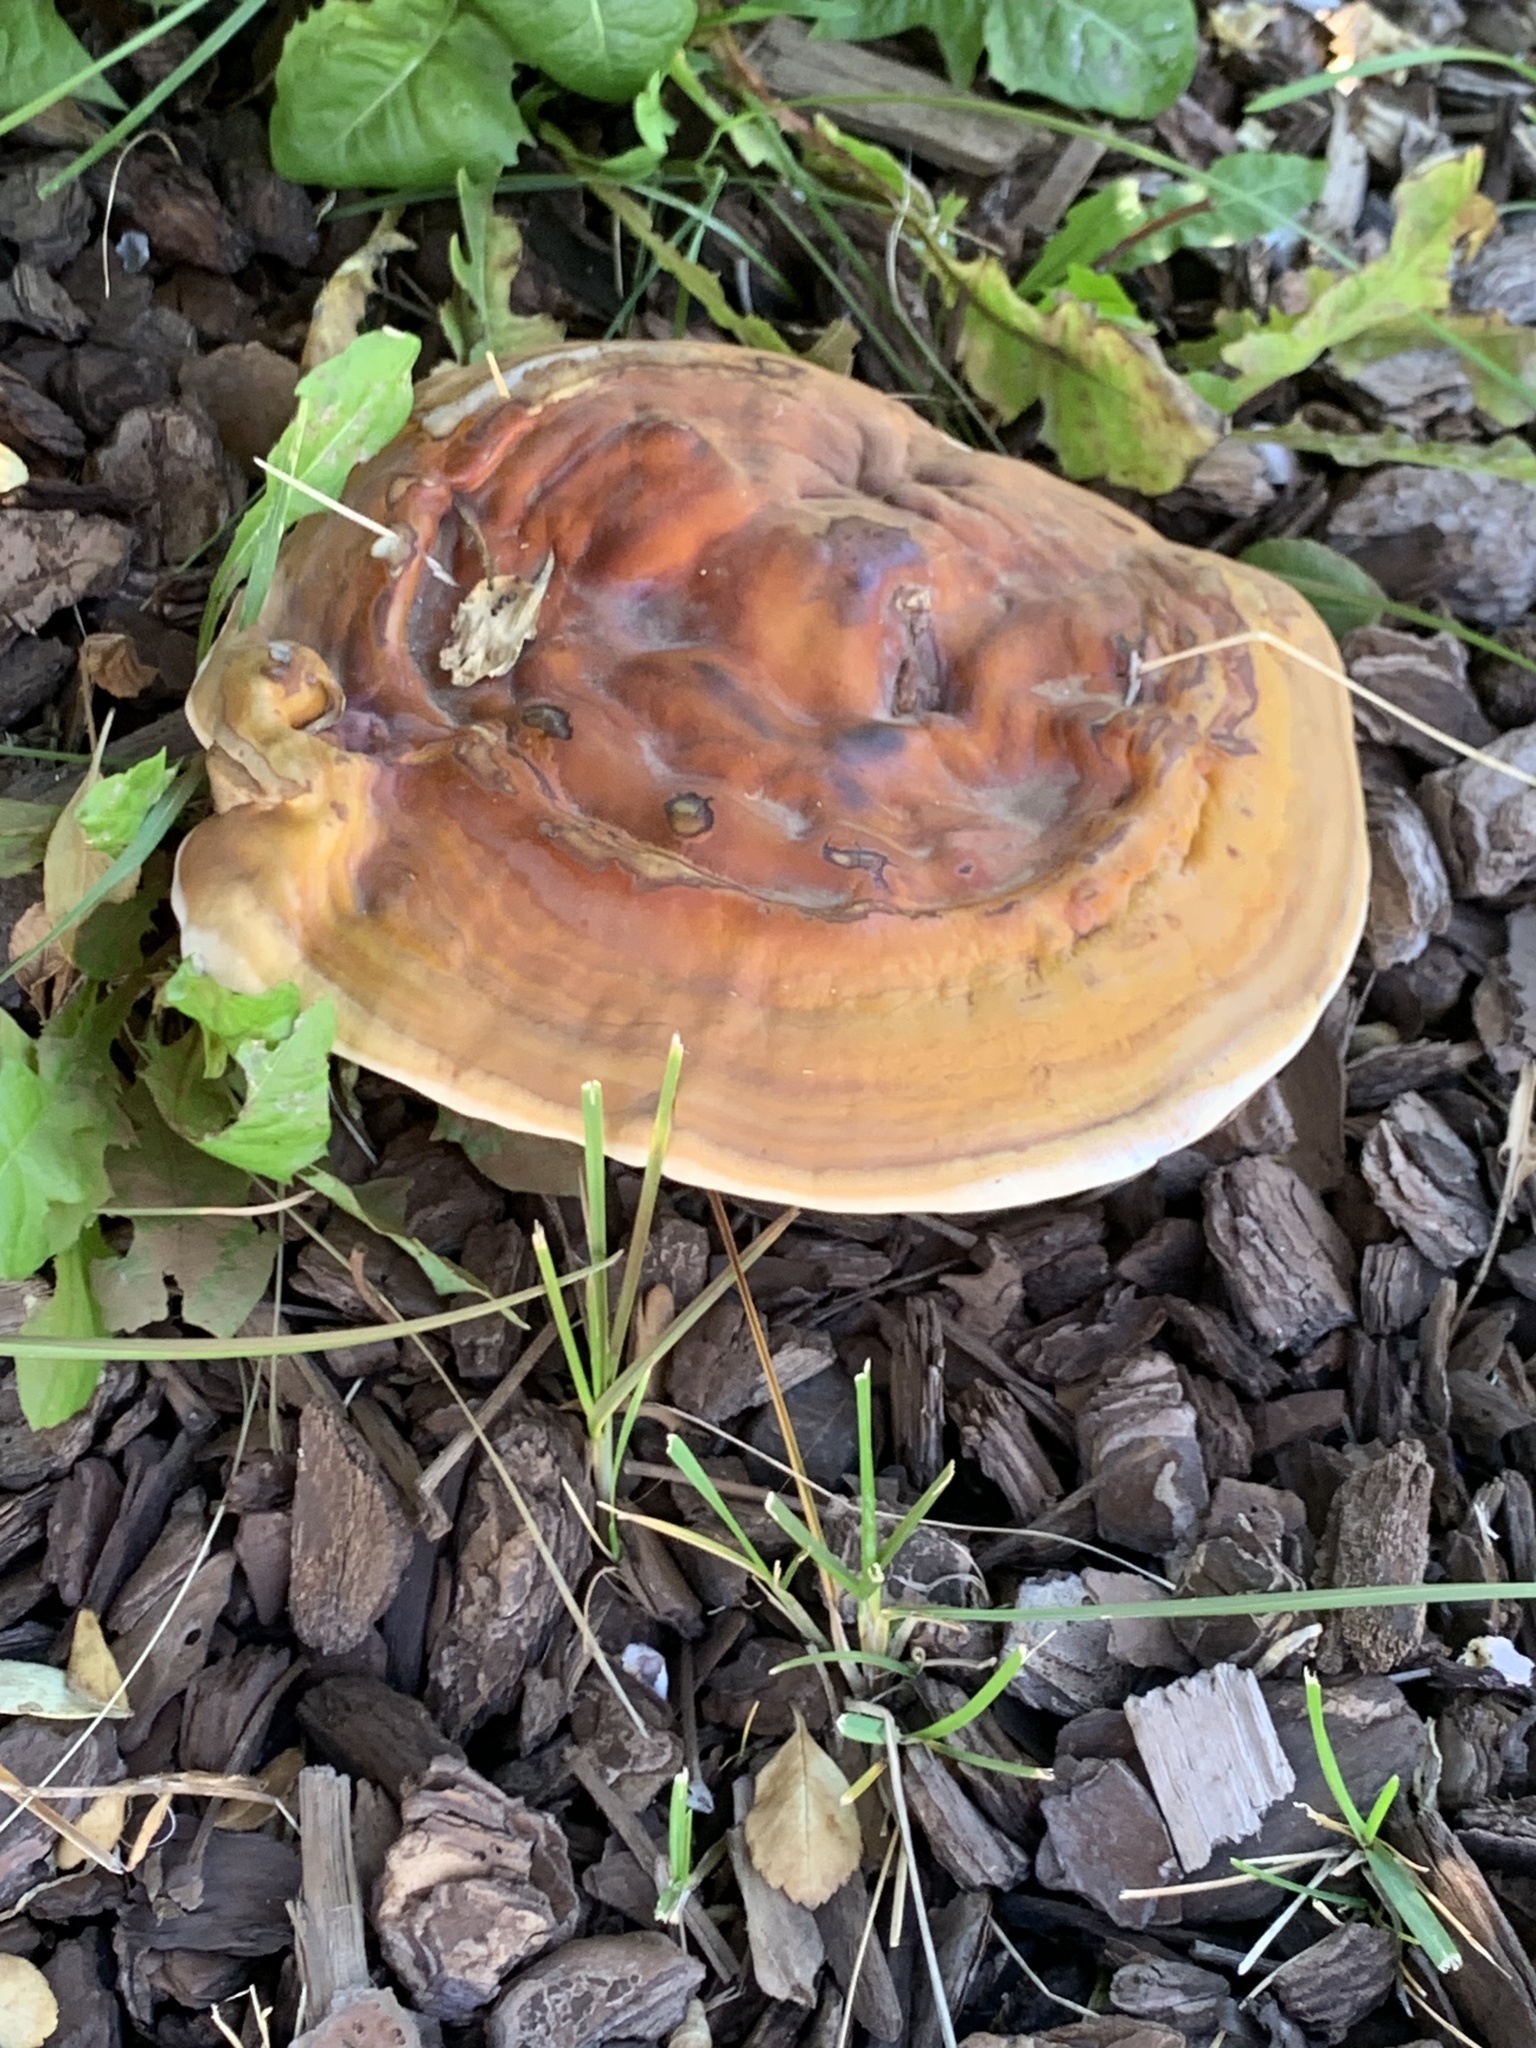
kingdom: Fungi
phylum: Basidiomycota
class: Agaricomycetes
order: Polyporales
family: Polyporaceae
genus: Ganoderma
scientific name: Ganoderma lucidum
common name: Lacquered bracket
